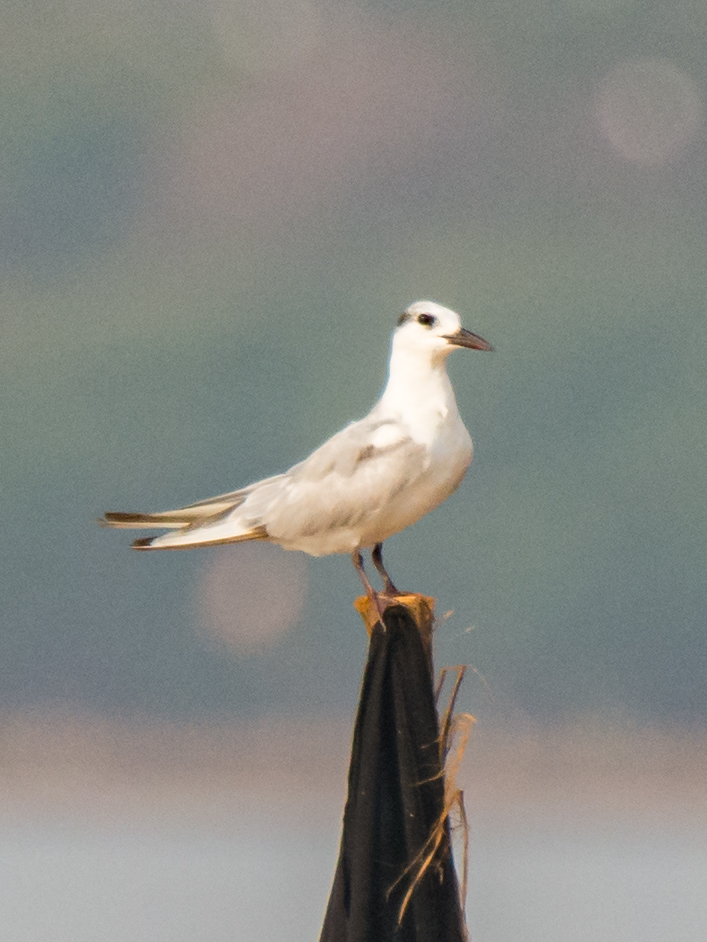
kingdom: Animalia
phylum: Chordata
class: Aves
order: Charadriiformes
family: Laridae
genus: Chlidonias
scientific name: Chlidonias hybrida
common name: Whiskered tern
